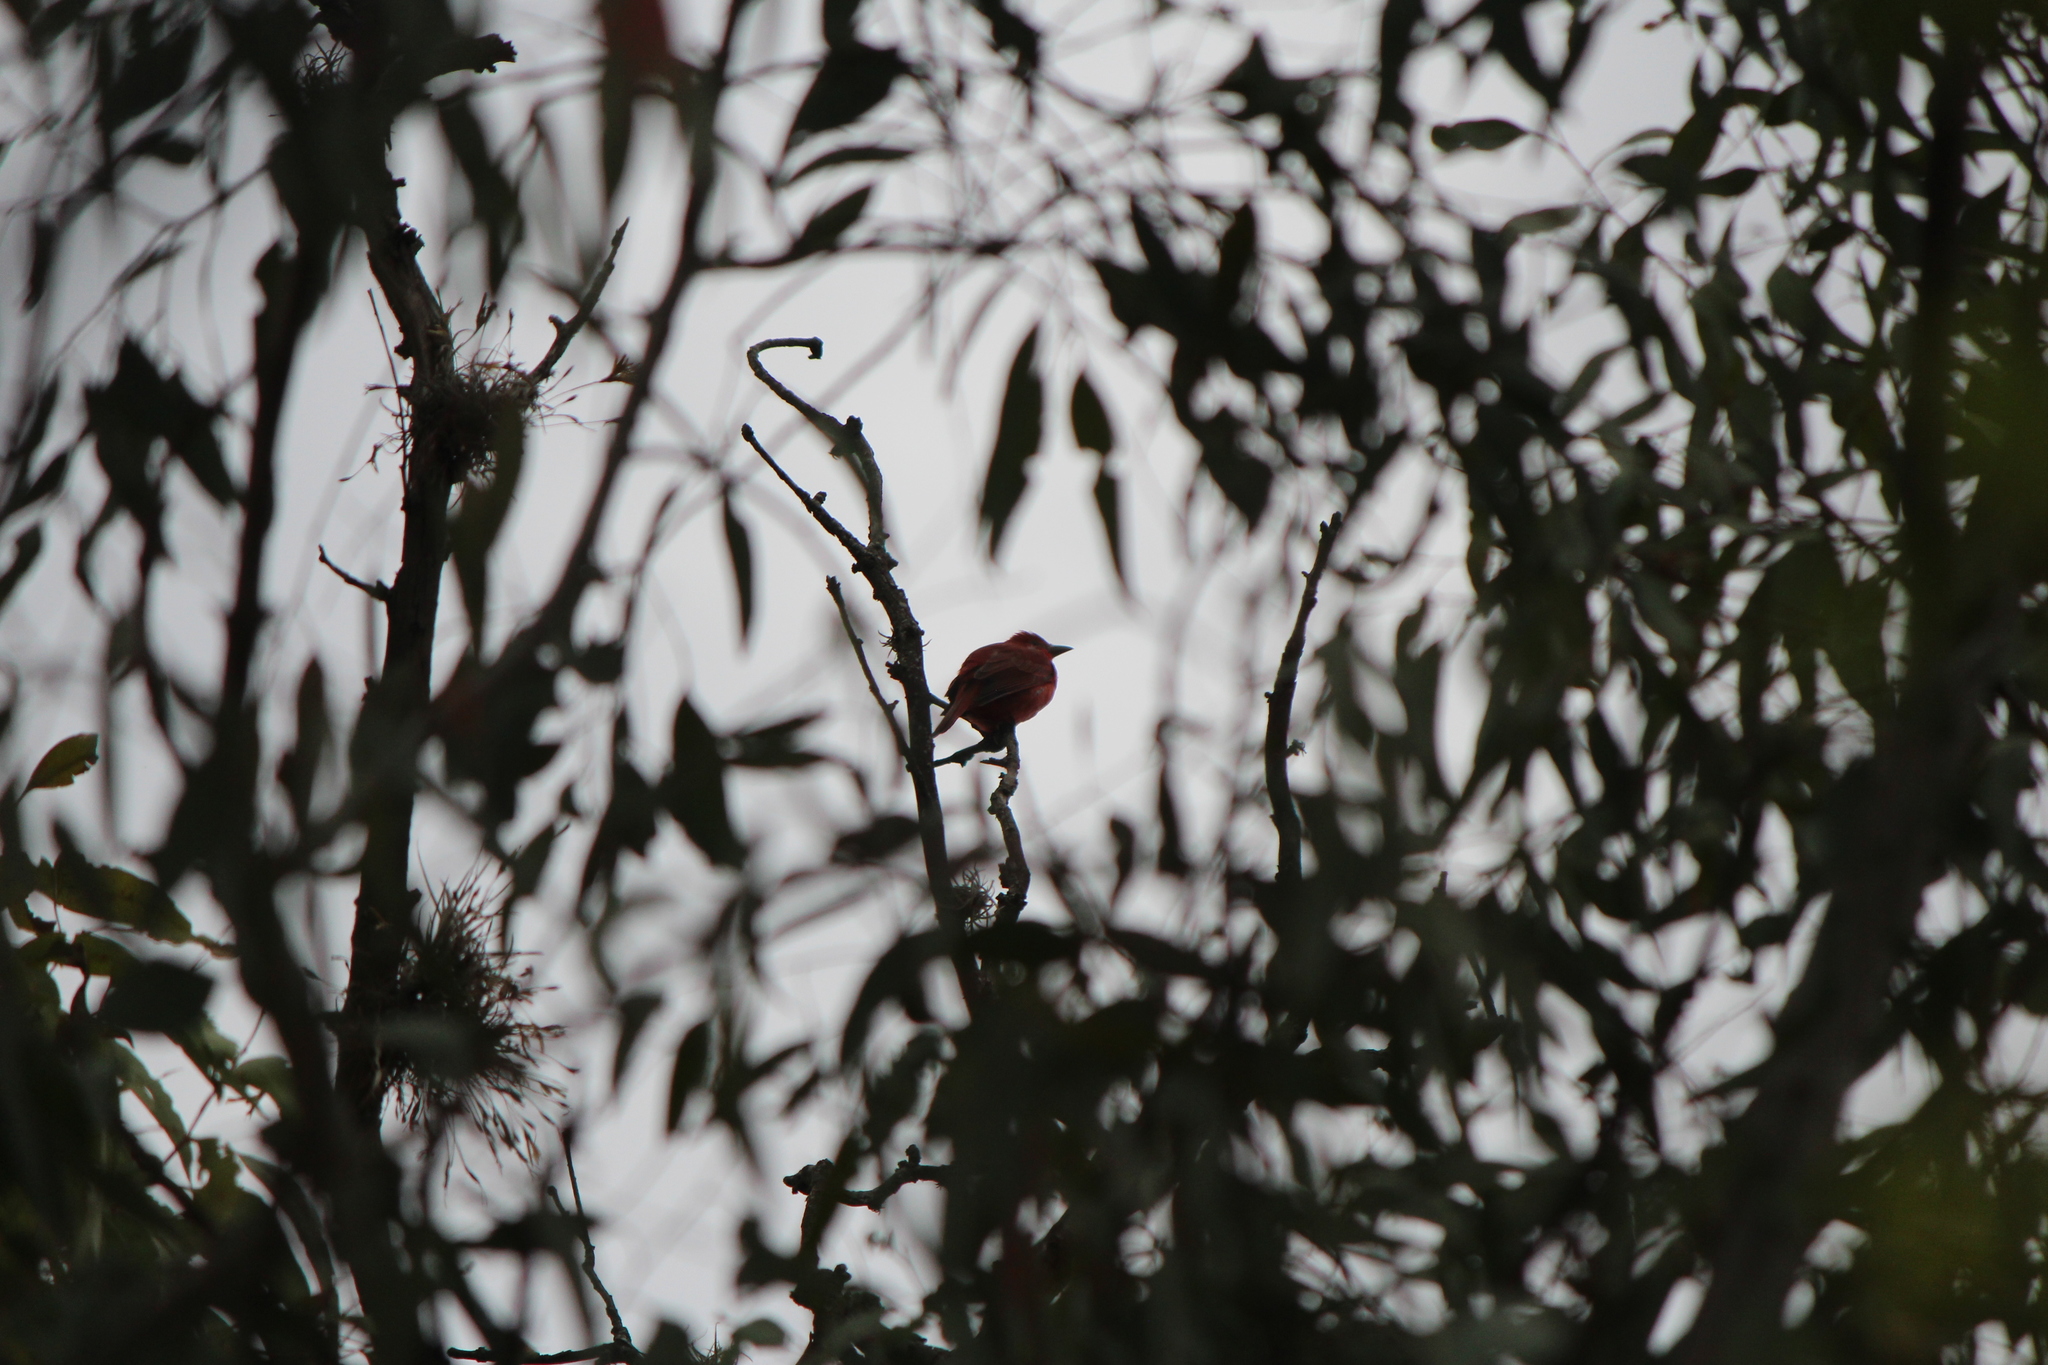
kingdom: Animalia
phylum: Chordata
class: Aves
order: Passeriformes
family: Cardinalidae
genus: Piranga
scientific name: Piranga rubra
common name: Summer tanager
